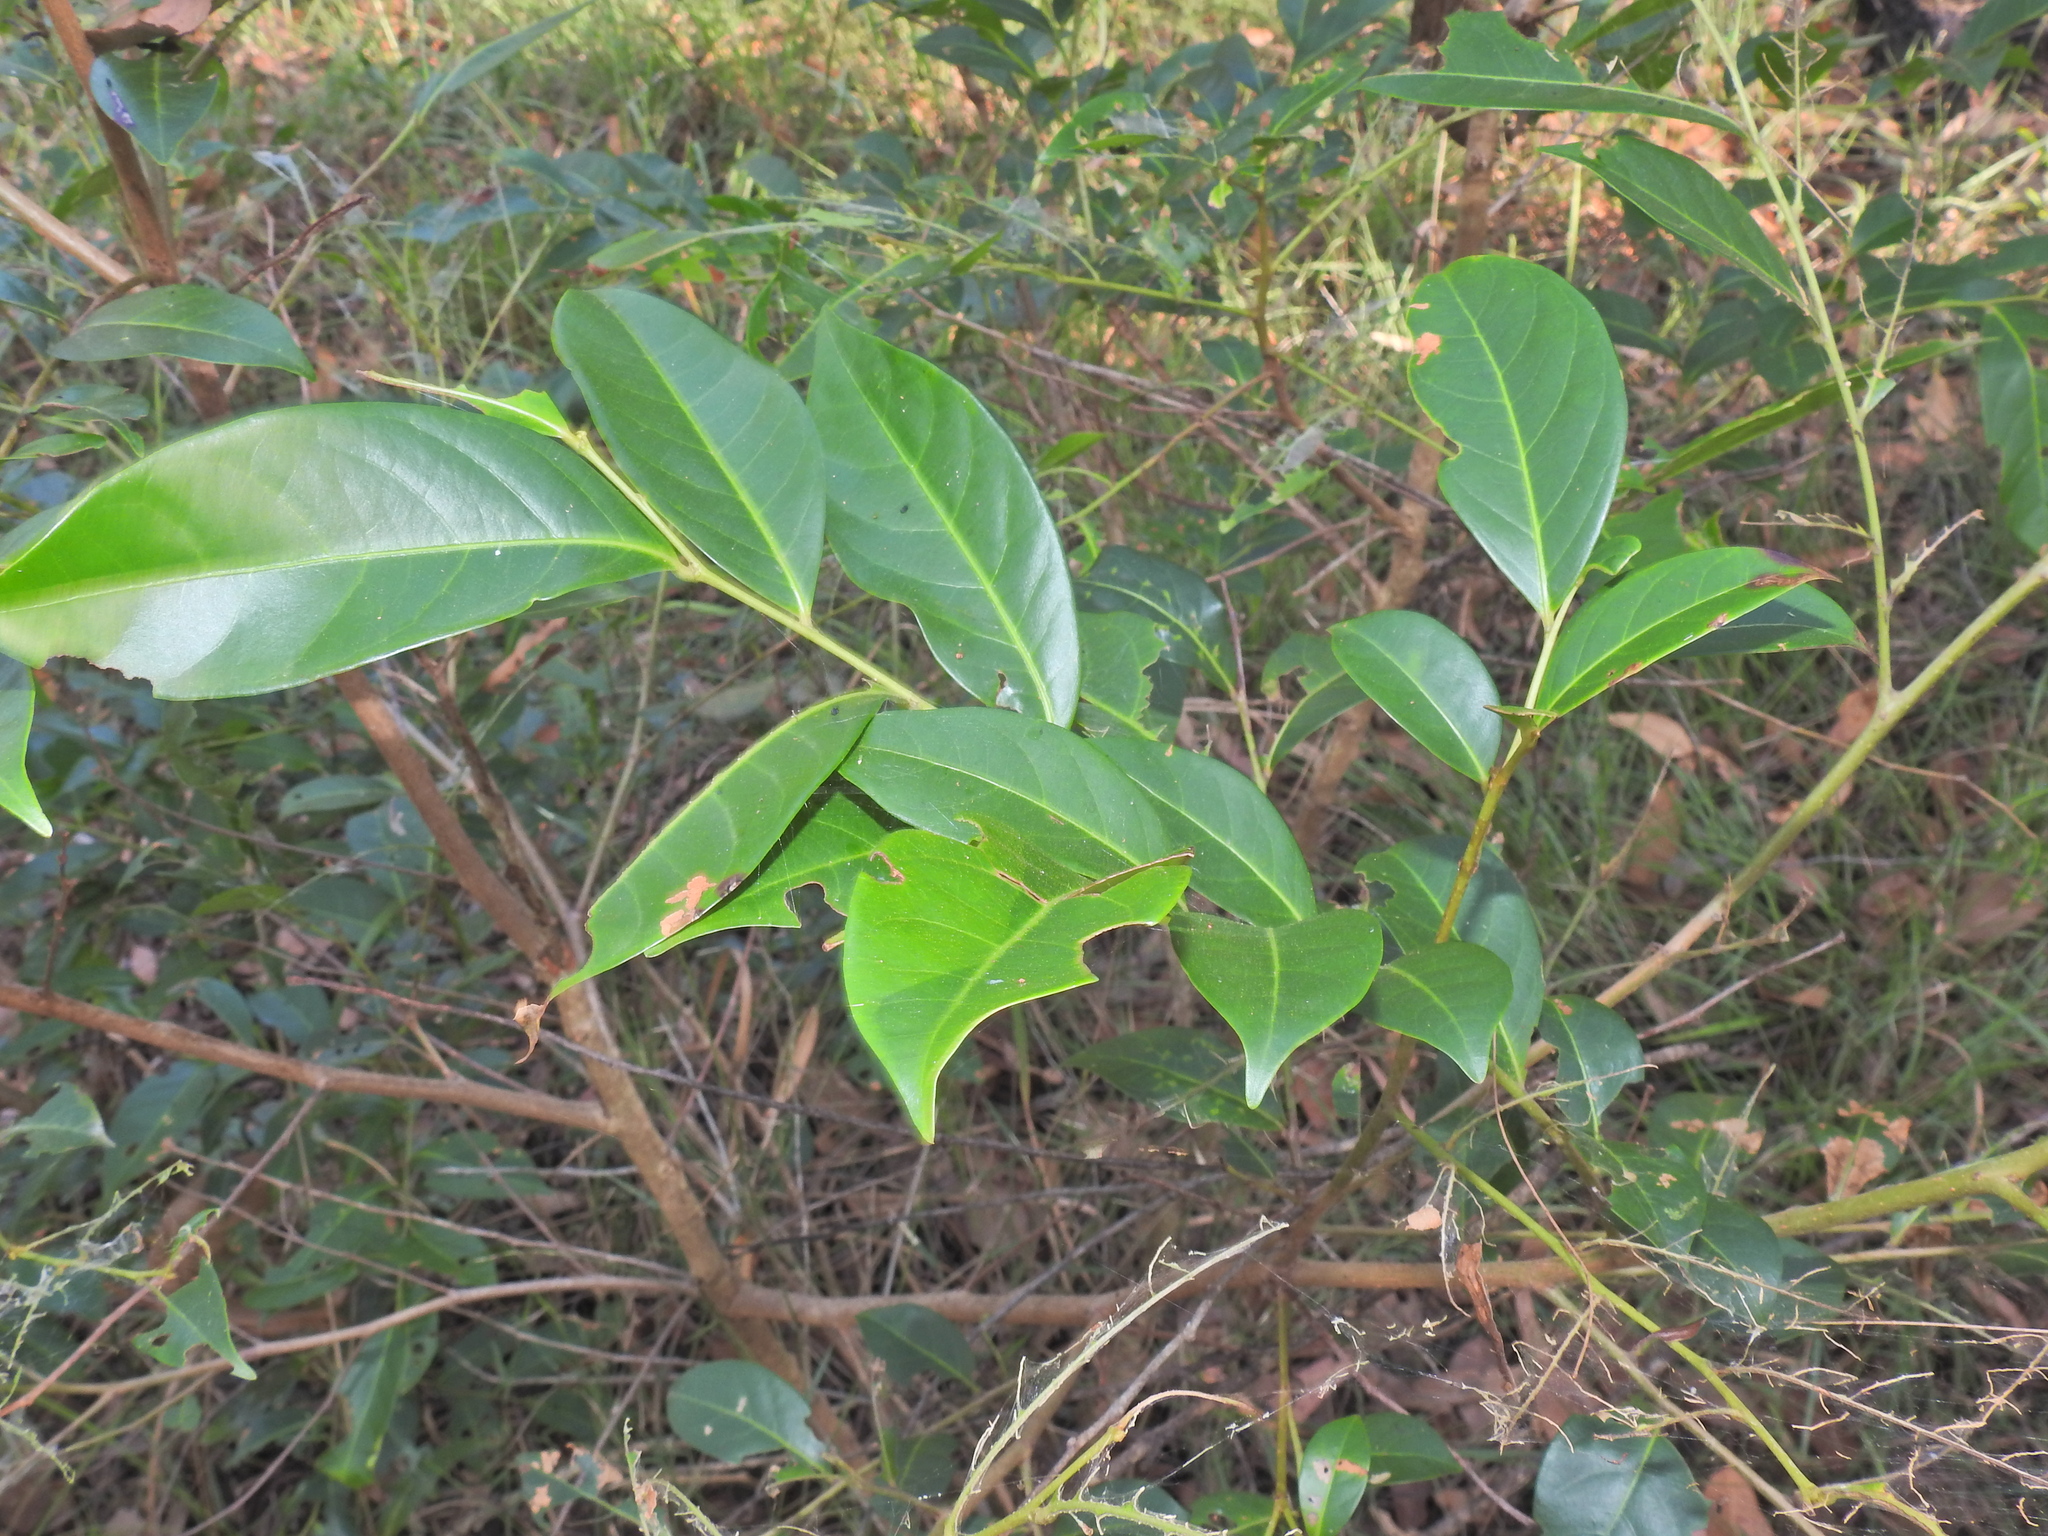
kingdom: Plantae
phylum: Tracheophyta
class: Magnoliopsida
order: Malpighiales
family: Phyllanthaceae
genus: Glochidion
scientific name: Glochidion ferdinandi
